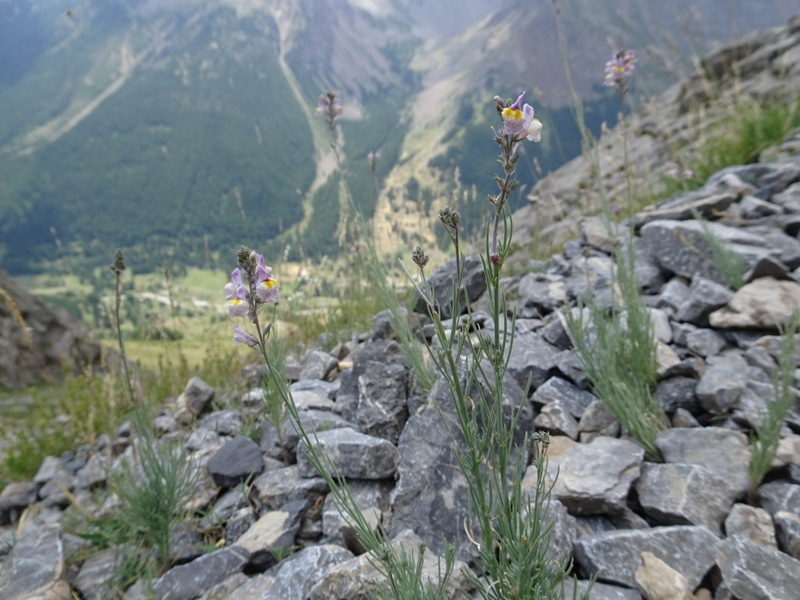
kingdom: Plantae
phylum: Tracheophyta
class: Magnoliopsida
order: Lamiales
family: Plantaginaceae
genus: Linaria
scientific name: Linaria repens
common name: Pale toadflax
